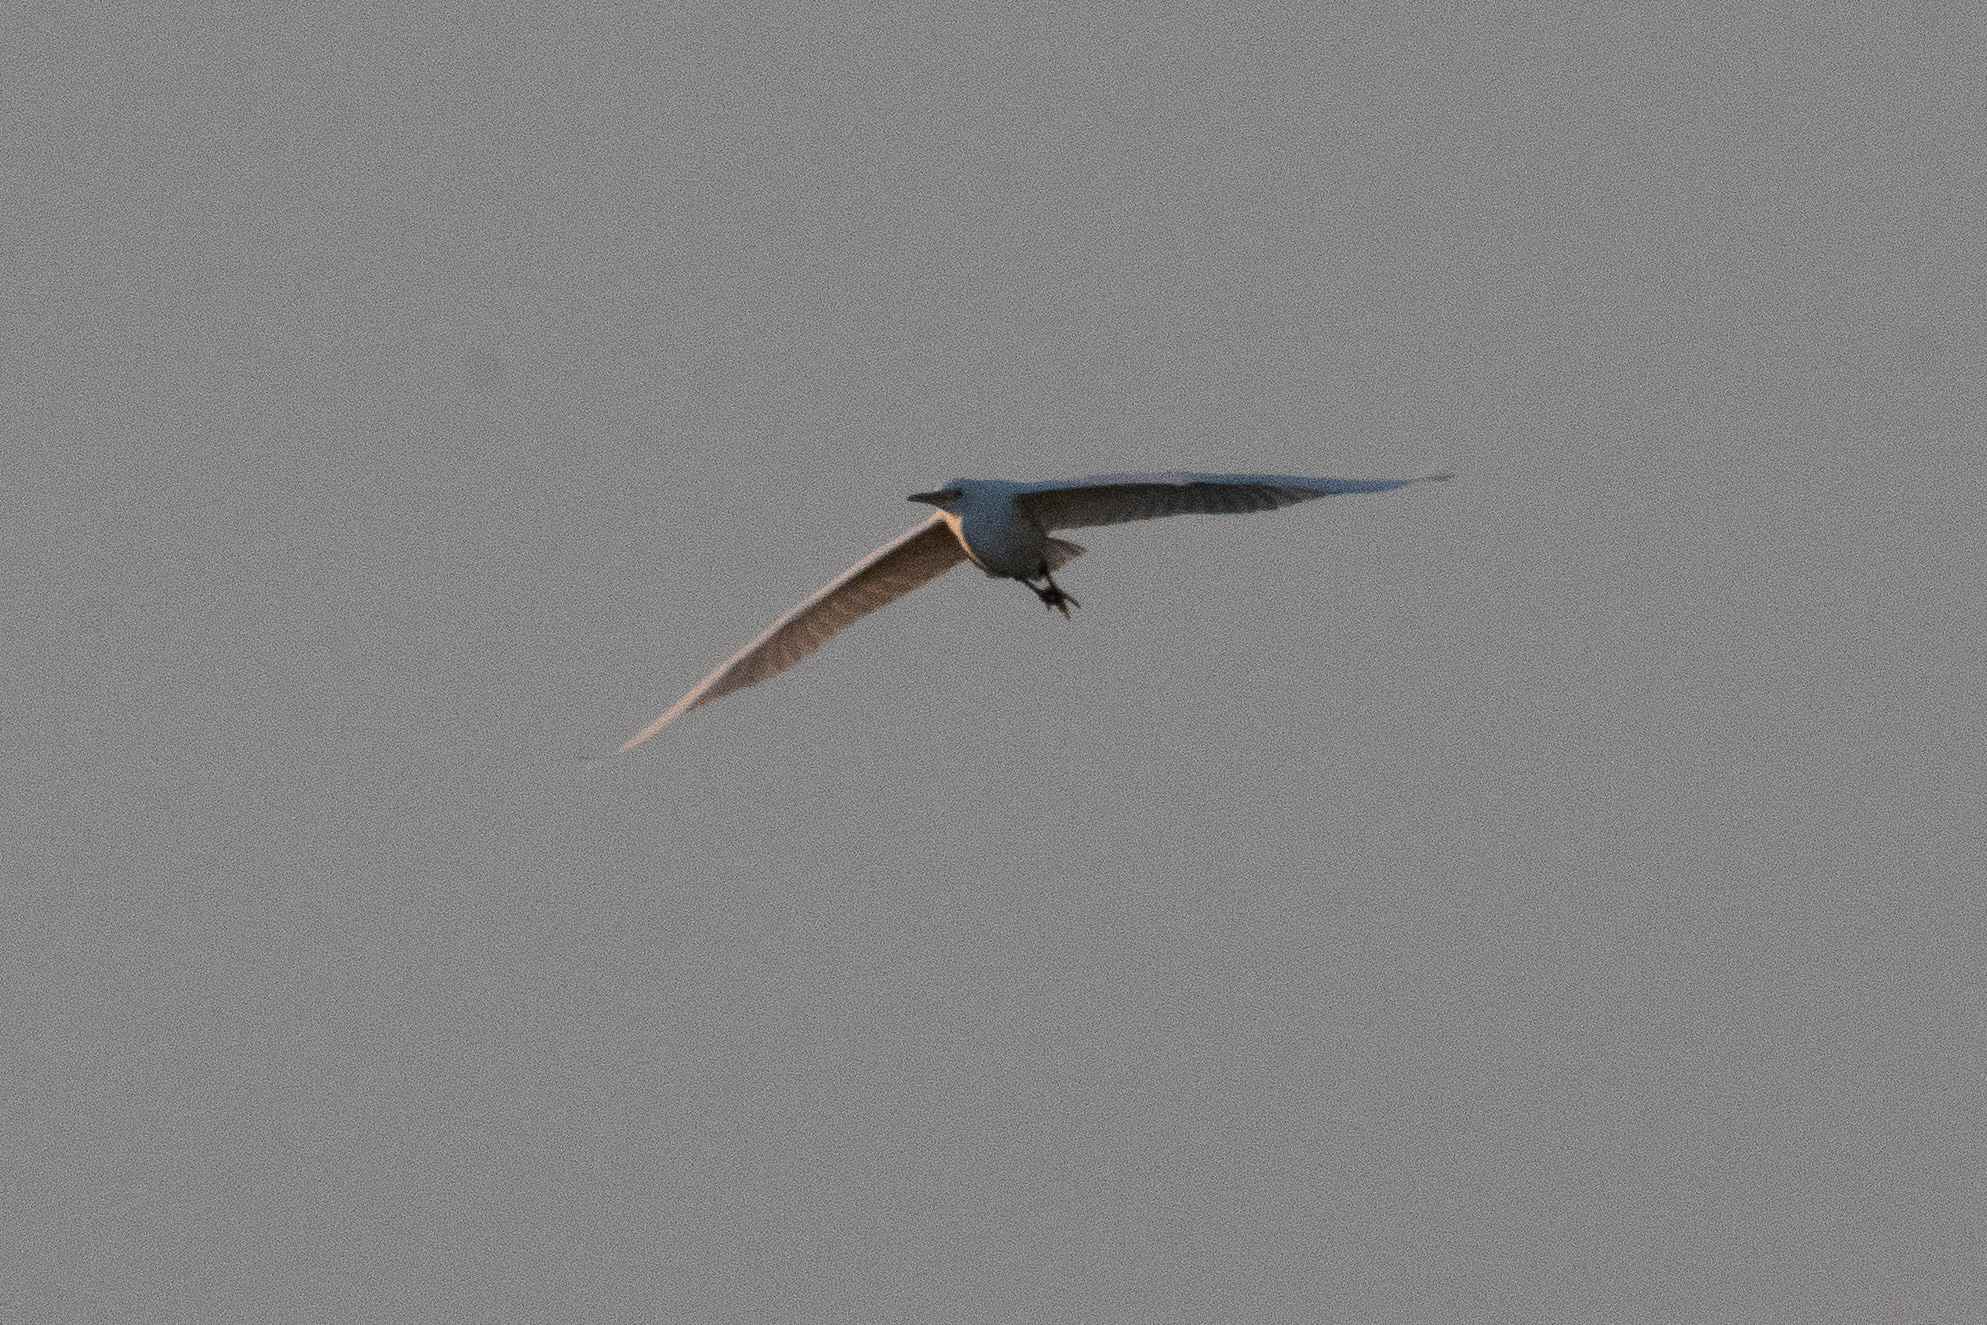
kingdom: Animalia
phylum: Chordata
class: Aves
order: Pelecaniformes
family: Ardeidae
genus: Ardea
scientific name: Ardea alba
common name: Great egret
